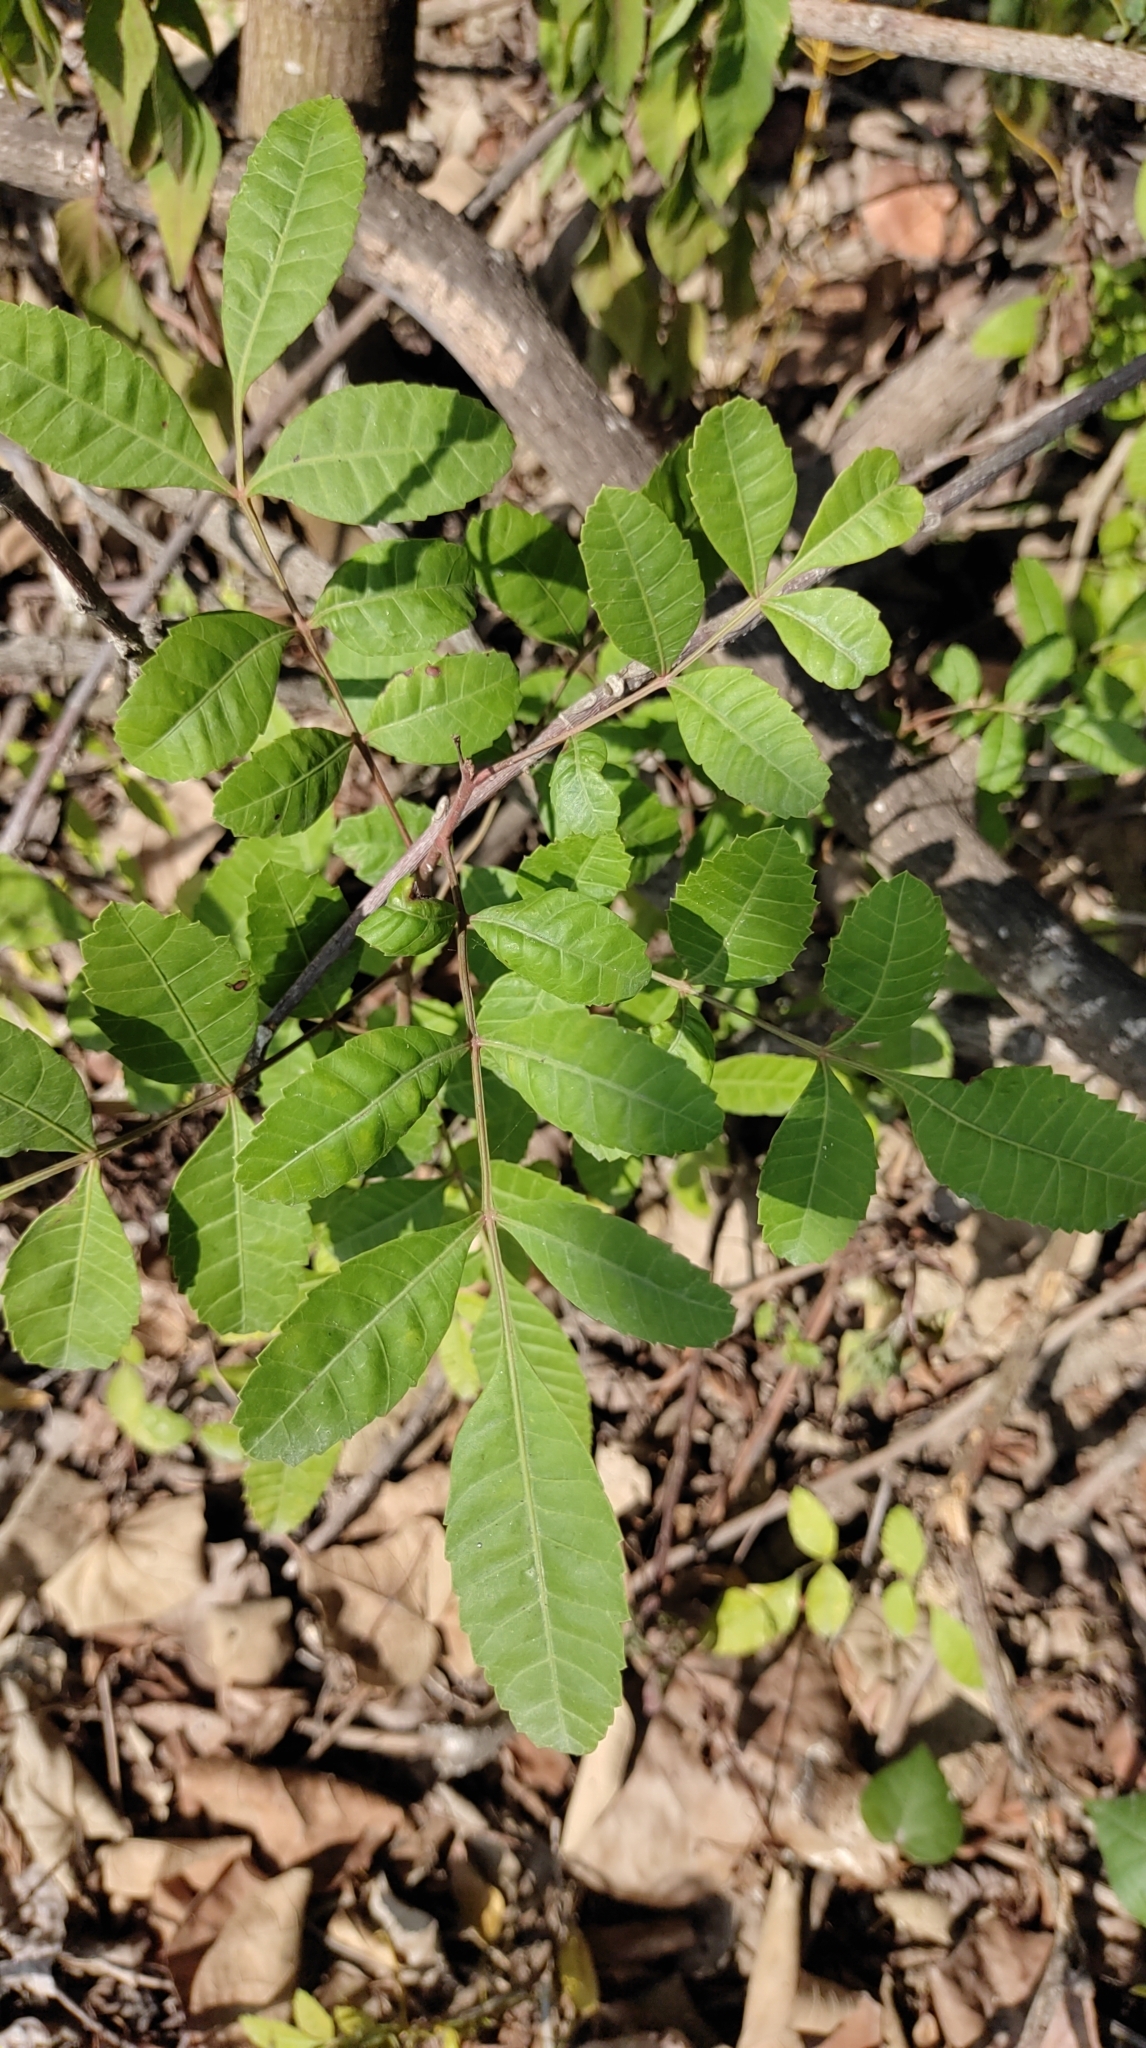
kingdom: Plantae
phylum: Tracheophyta
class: Magnoliopsida
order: Sapindales
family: Anacardiaceae
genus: Schinus
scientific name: Schinus terebinthifolia
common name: Brazilian peppertree
